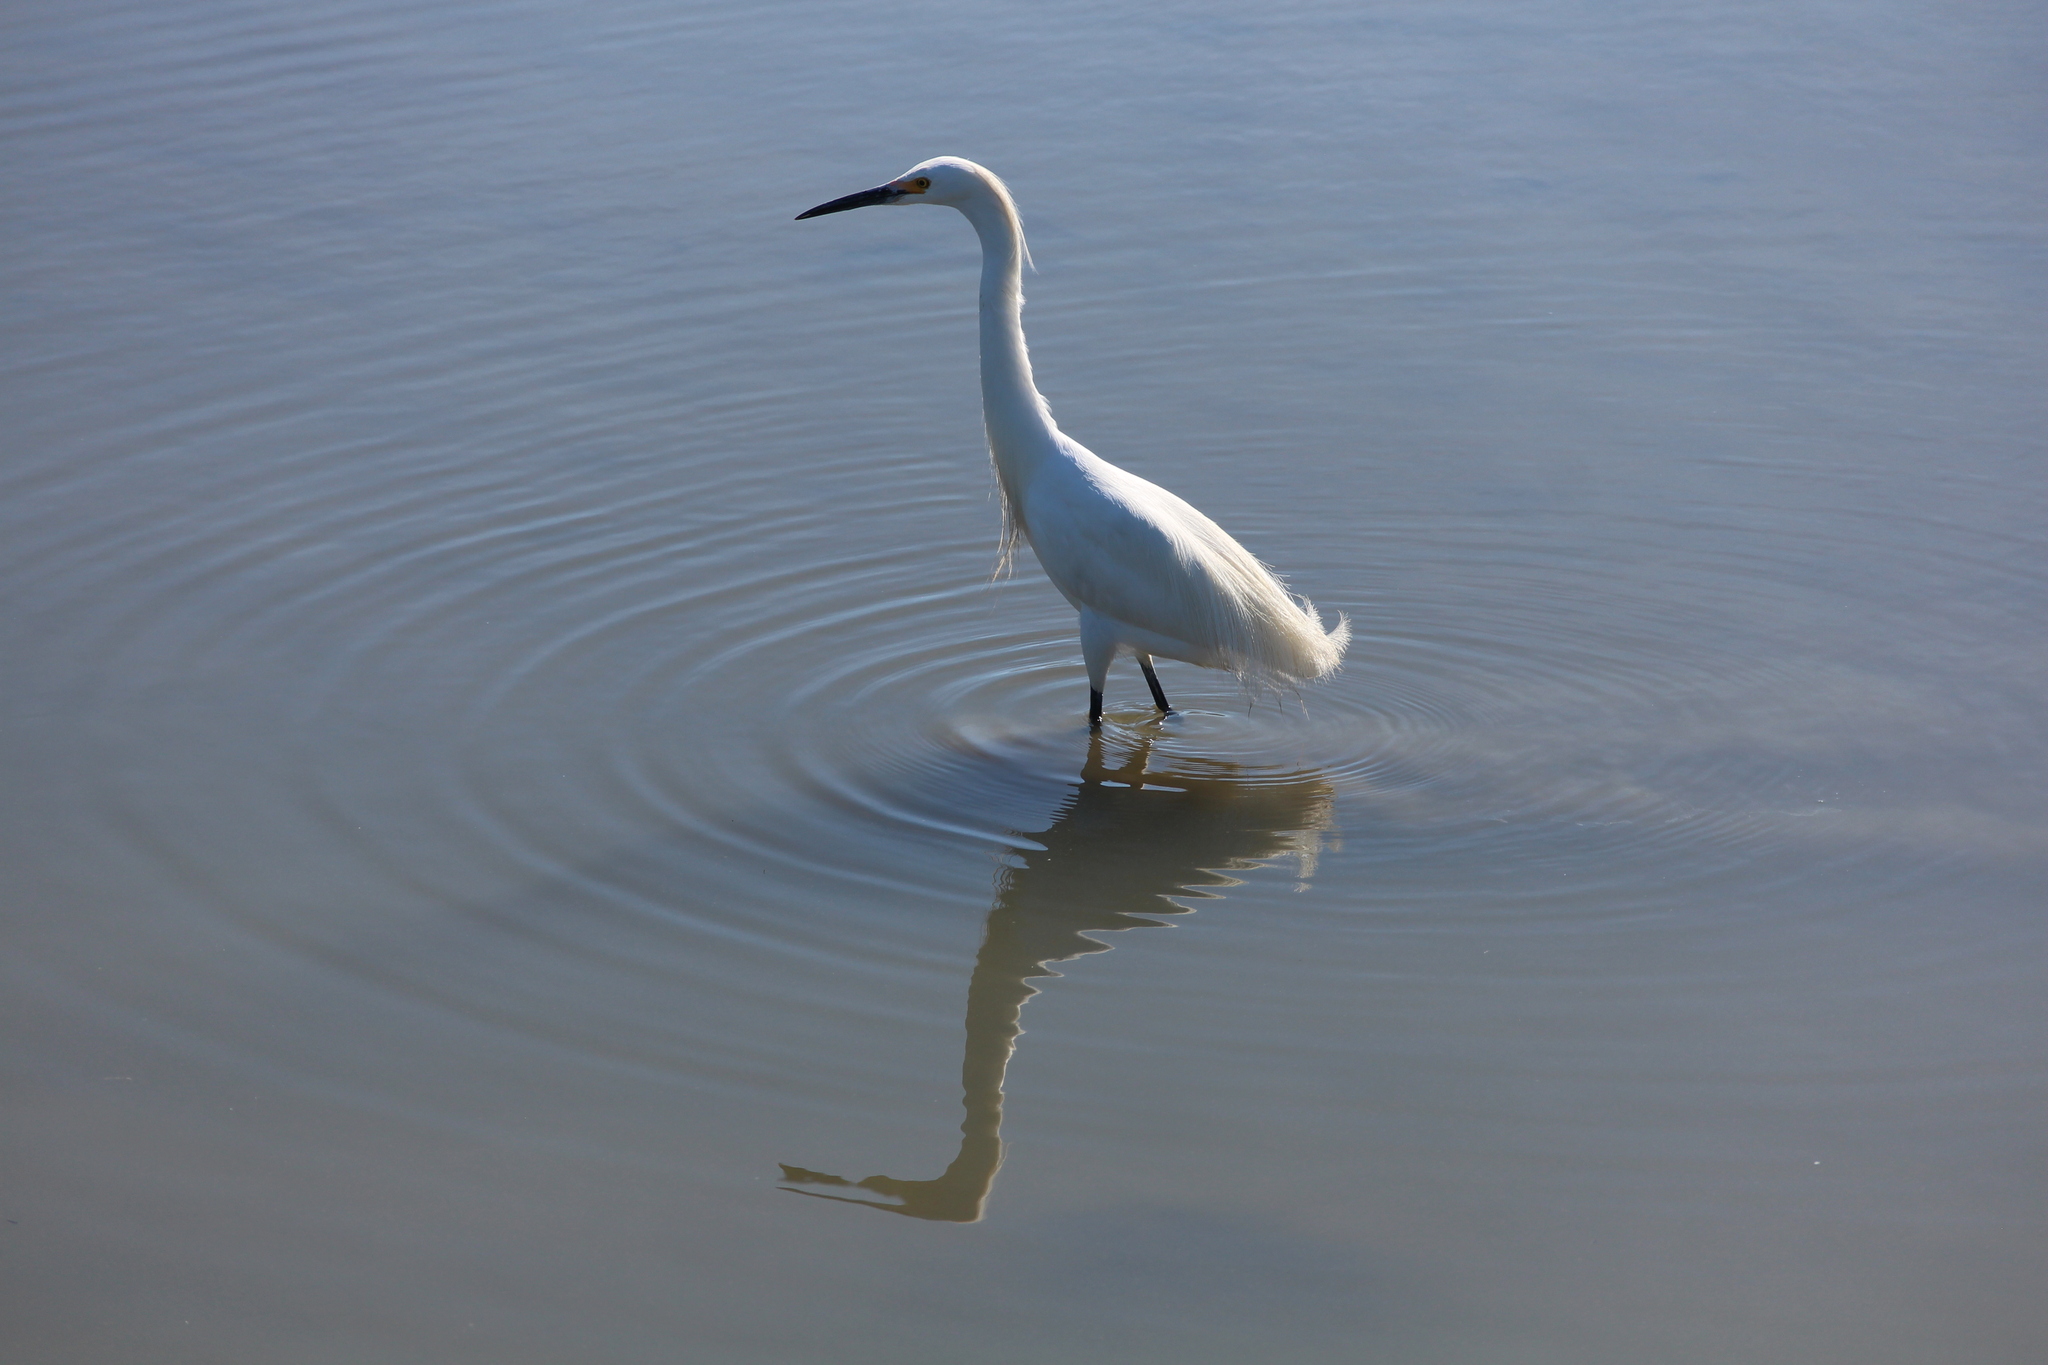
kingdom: Animalia
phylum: Chordata
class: Aves
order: Pelecaniformes
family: Ardeidae
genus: Egretta
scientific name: Egretta thula
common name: Snowy egret
